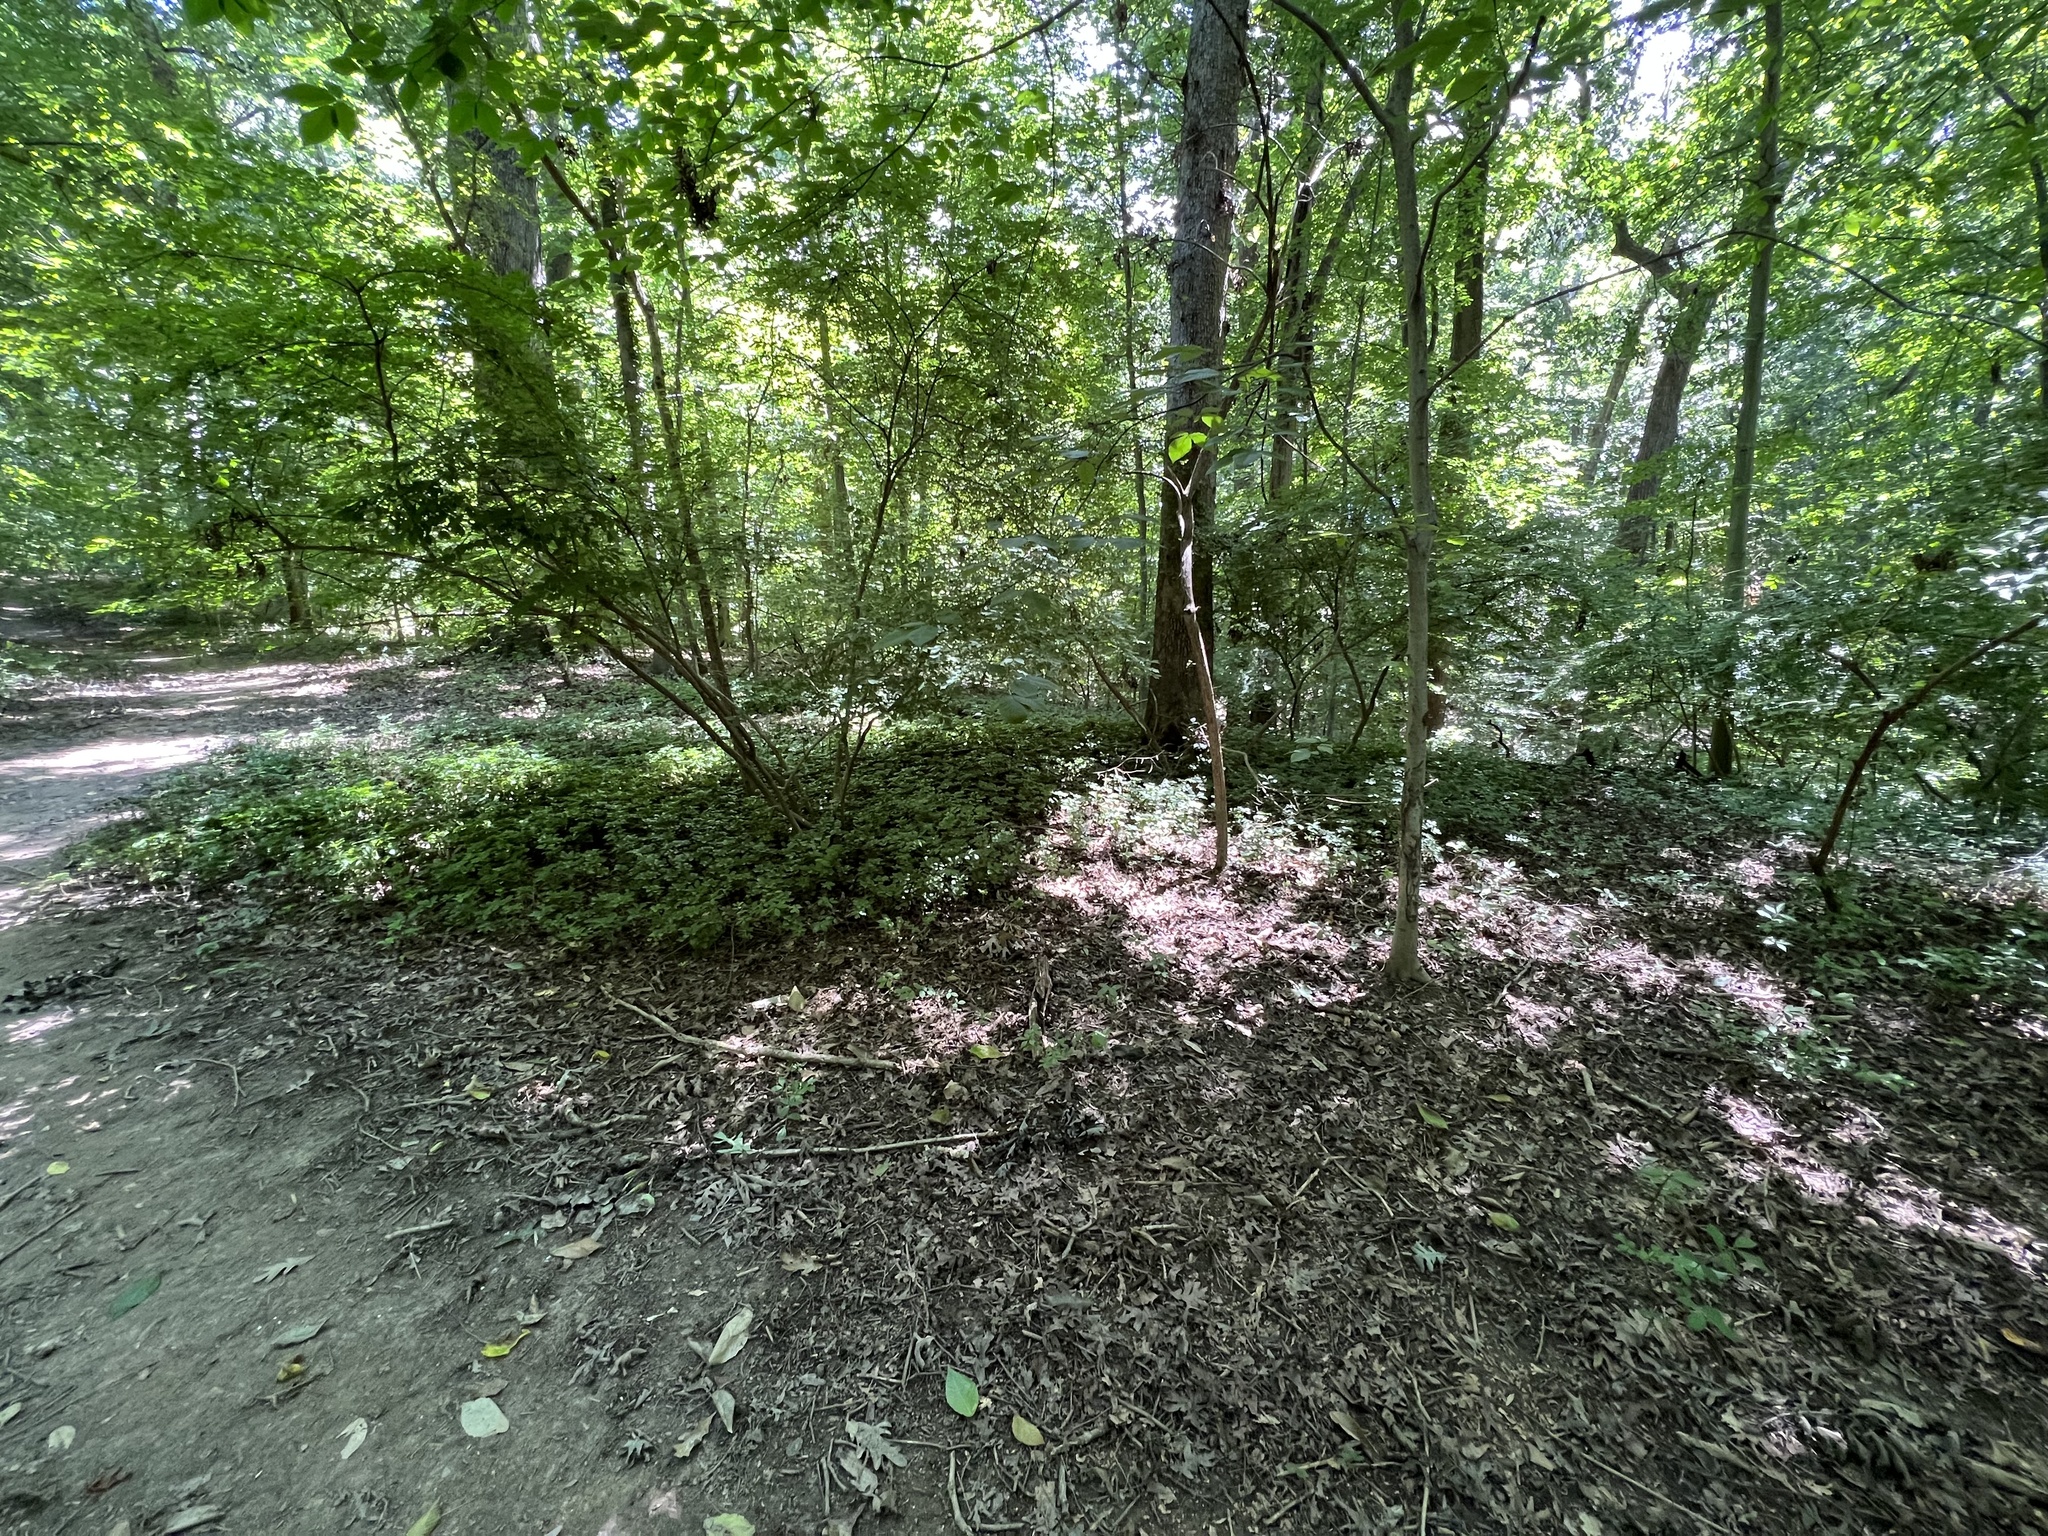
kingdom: Plantae
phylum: Tracheophyta
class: Magnoliopsida
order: Buxales
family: Buxaceae
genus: Pachysandra
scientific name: Pachysandra terminalis
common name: Japanese pachysandra
